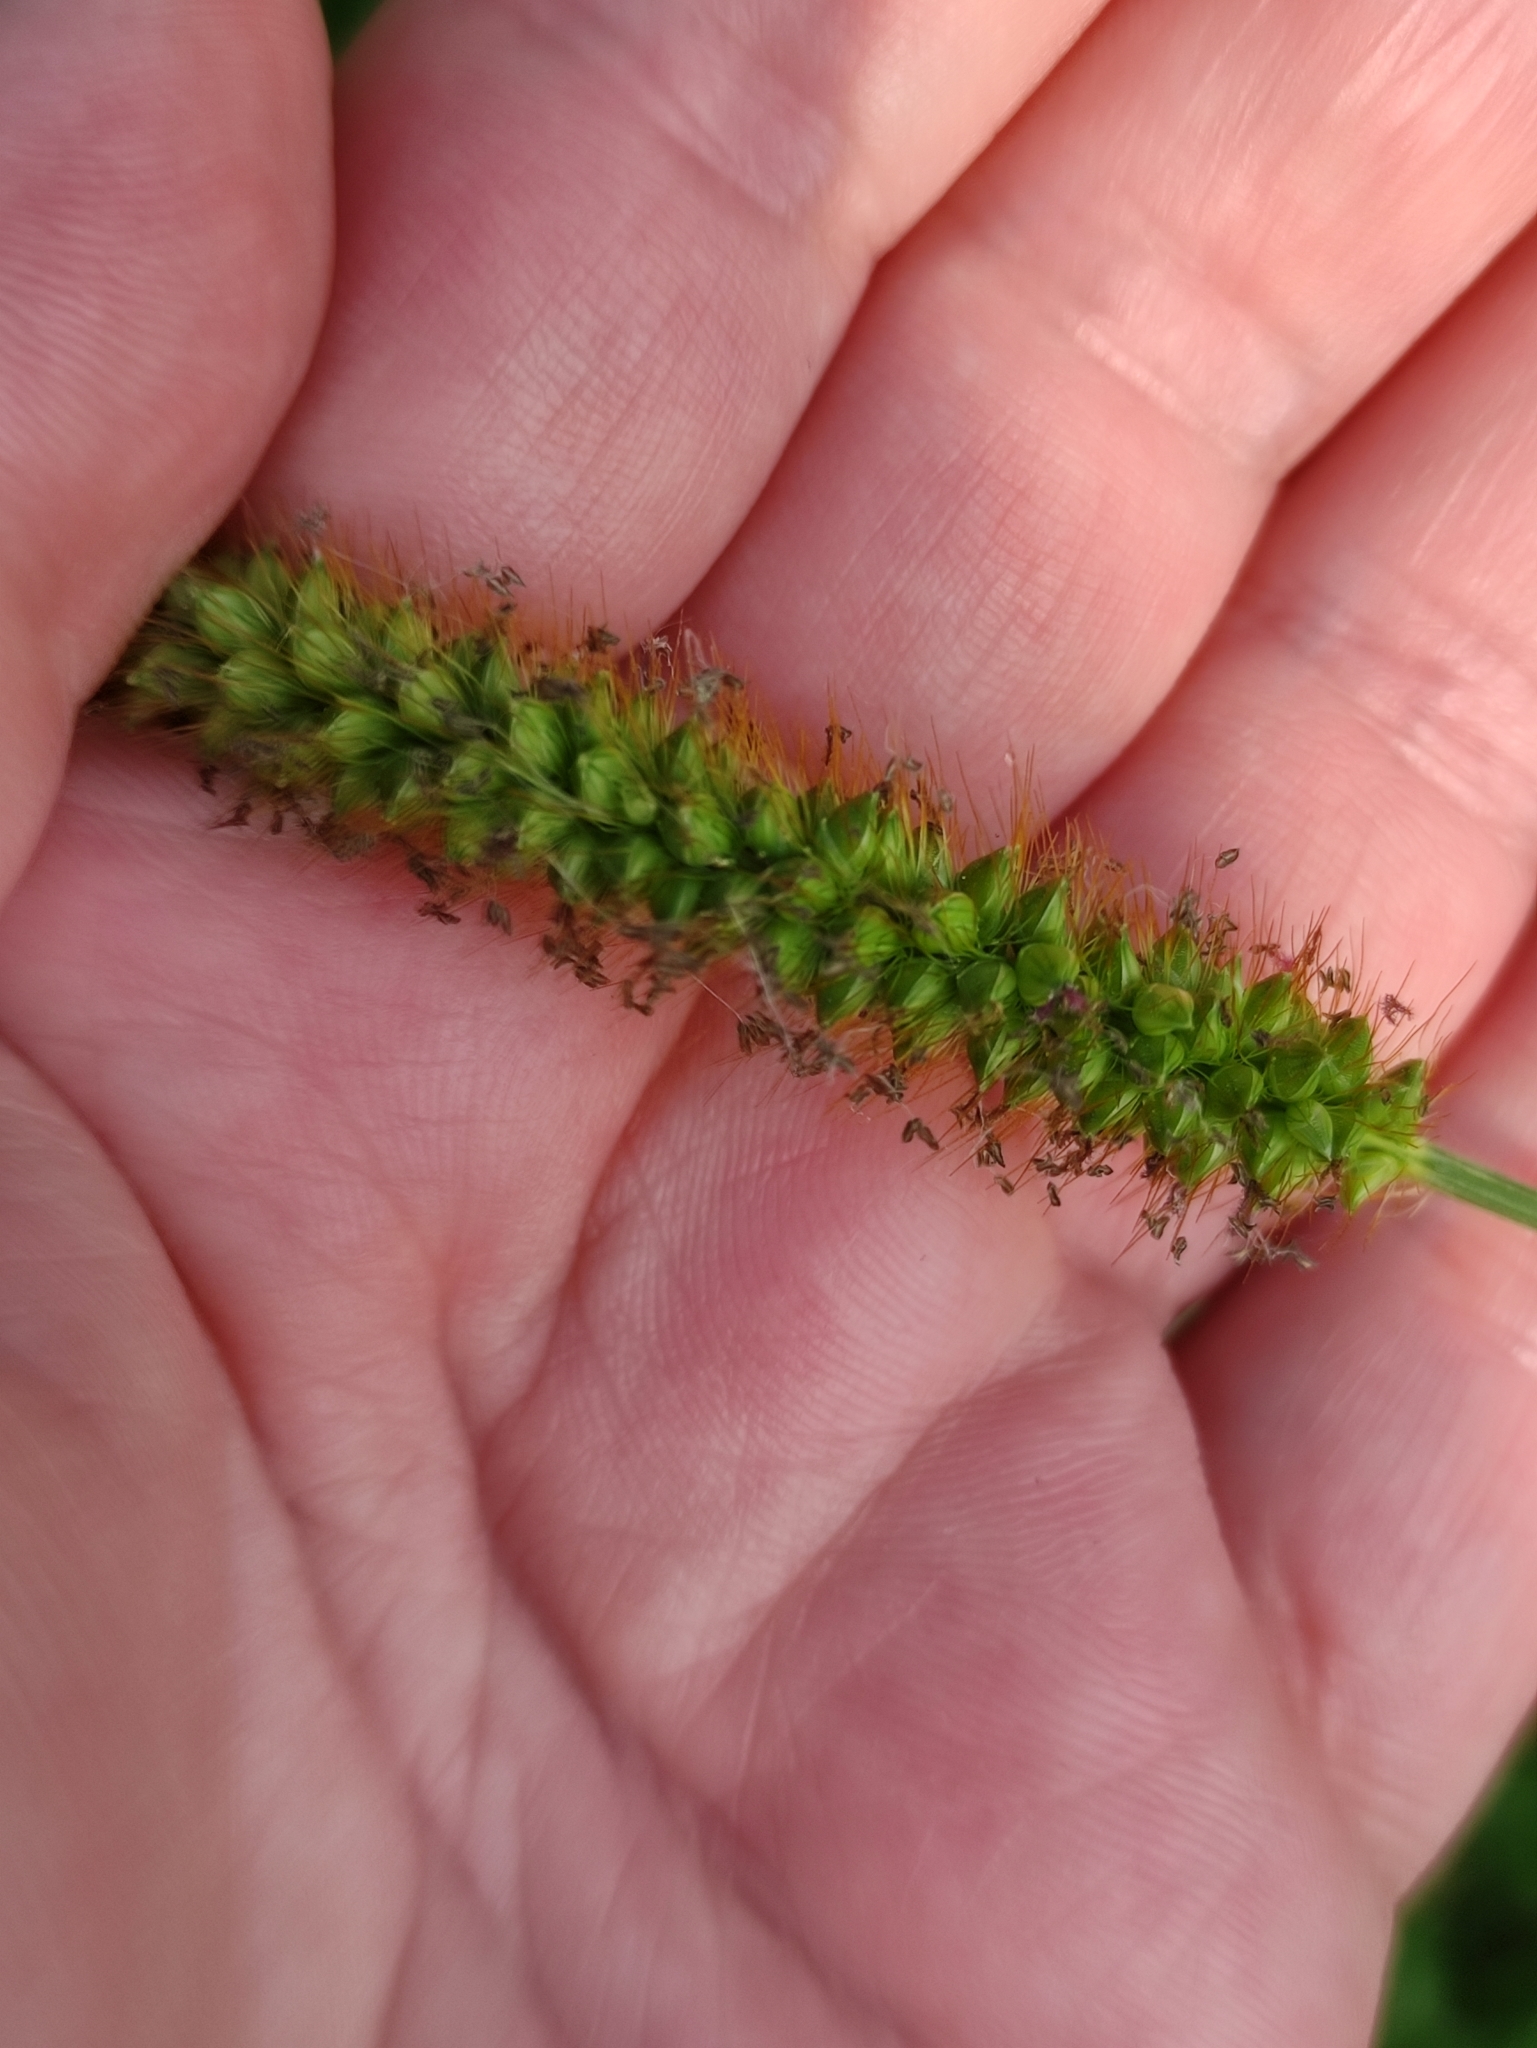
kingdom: Plantae
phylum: Tracheophyta
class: Liliopsida
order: Poales
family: Poaceae
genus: Setaria
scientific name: Setaria pumila
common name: Yellow bristle-grass
